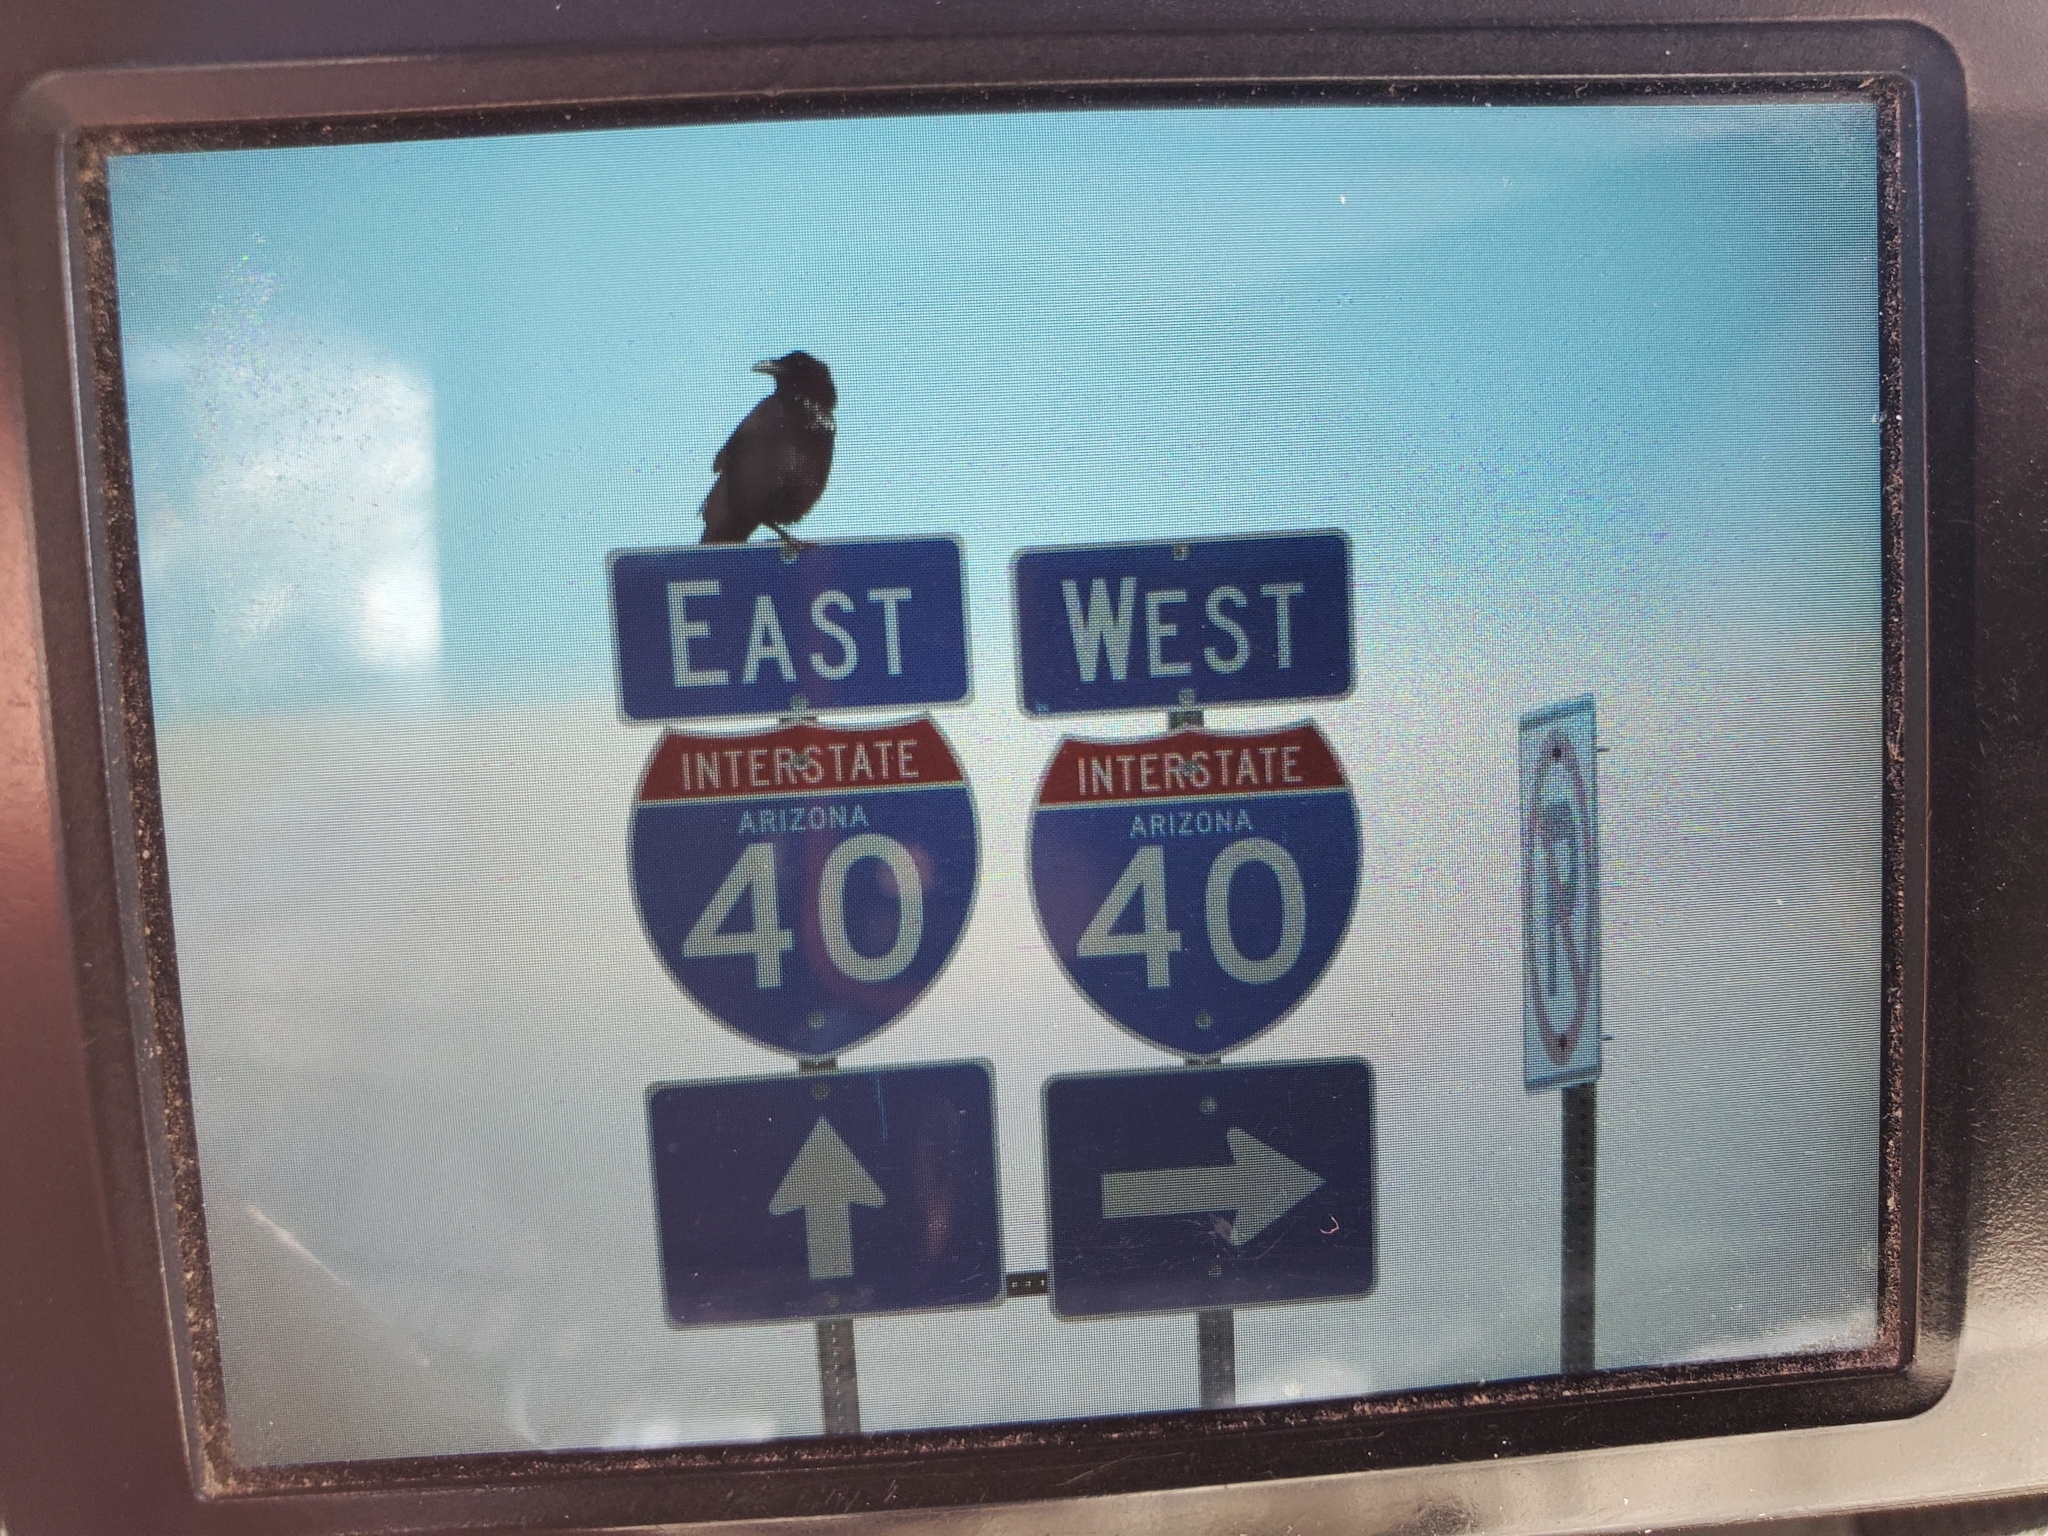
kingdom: Animalia
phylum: Chordata
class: Aves
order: Passeriformes
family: Corvidae
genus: Corvus
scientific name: Corvus corax
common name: Common raven
